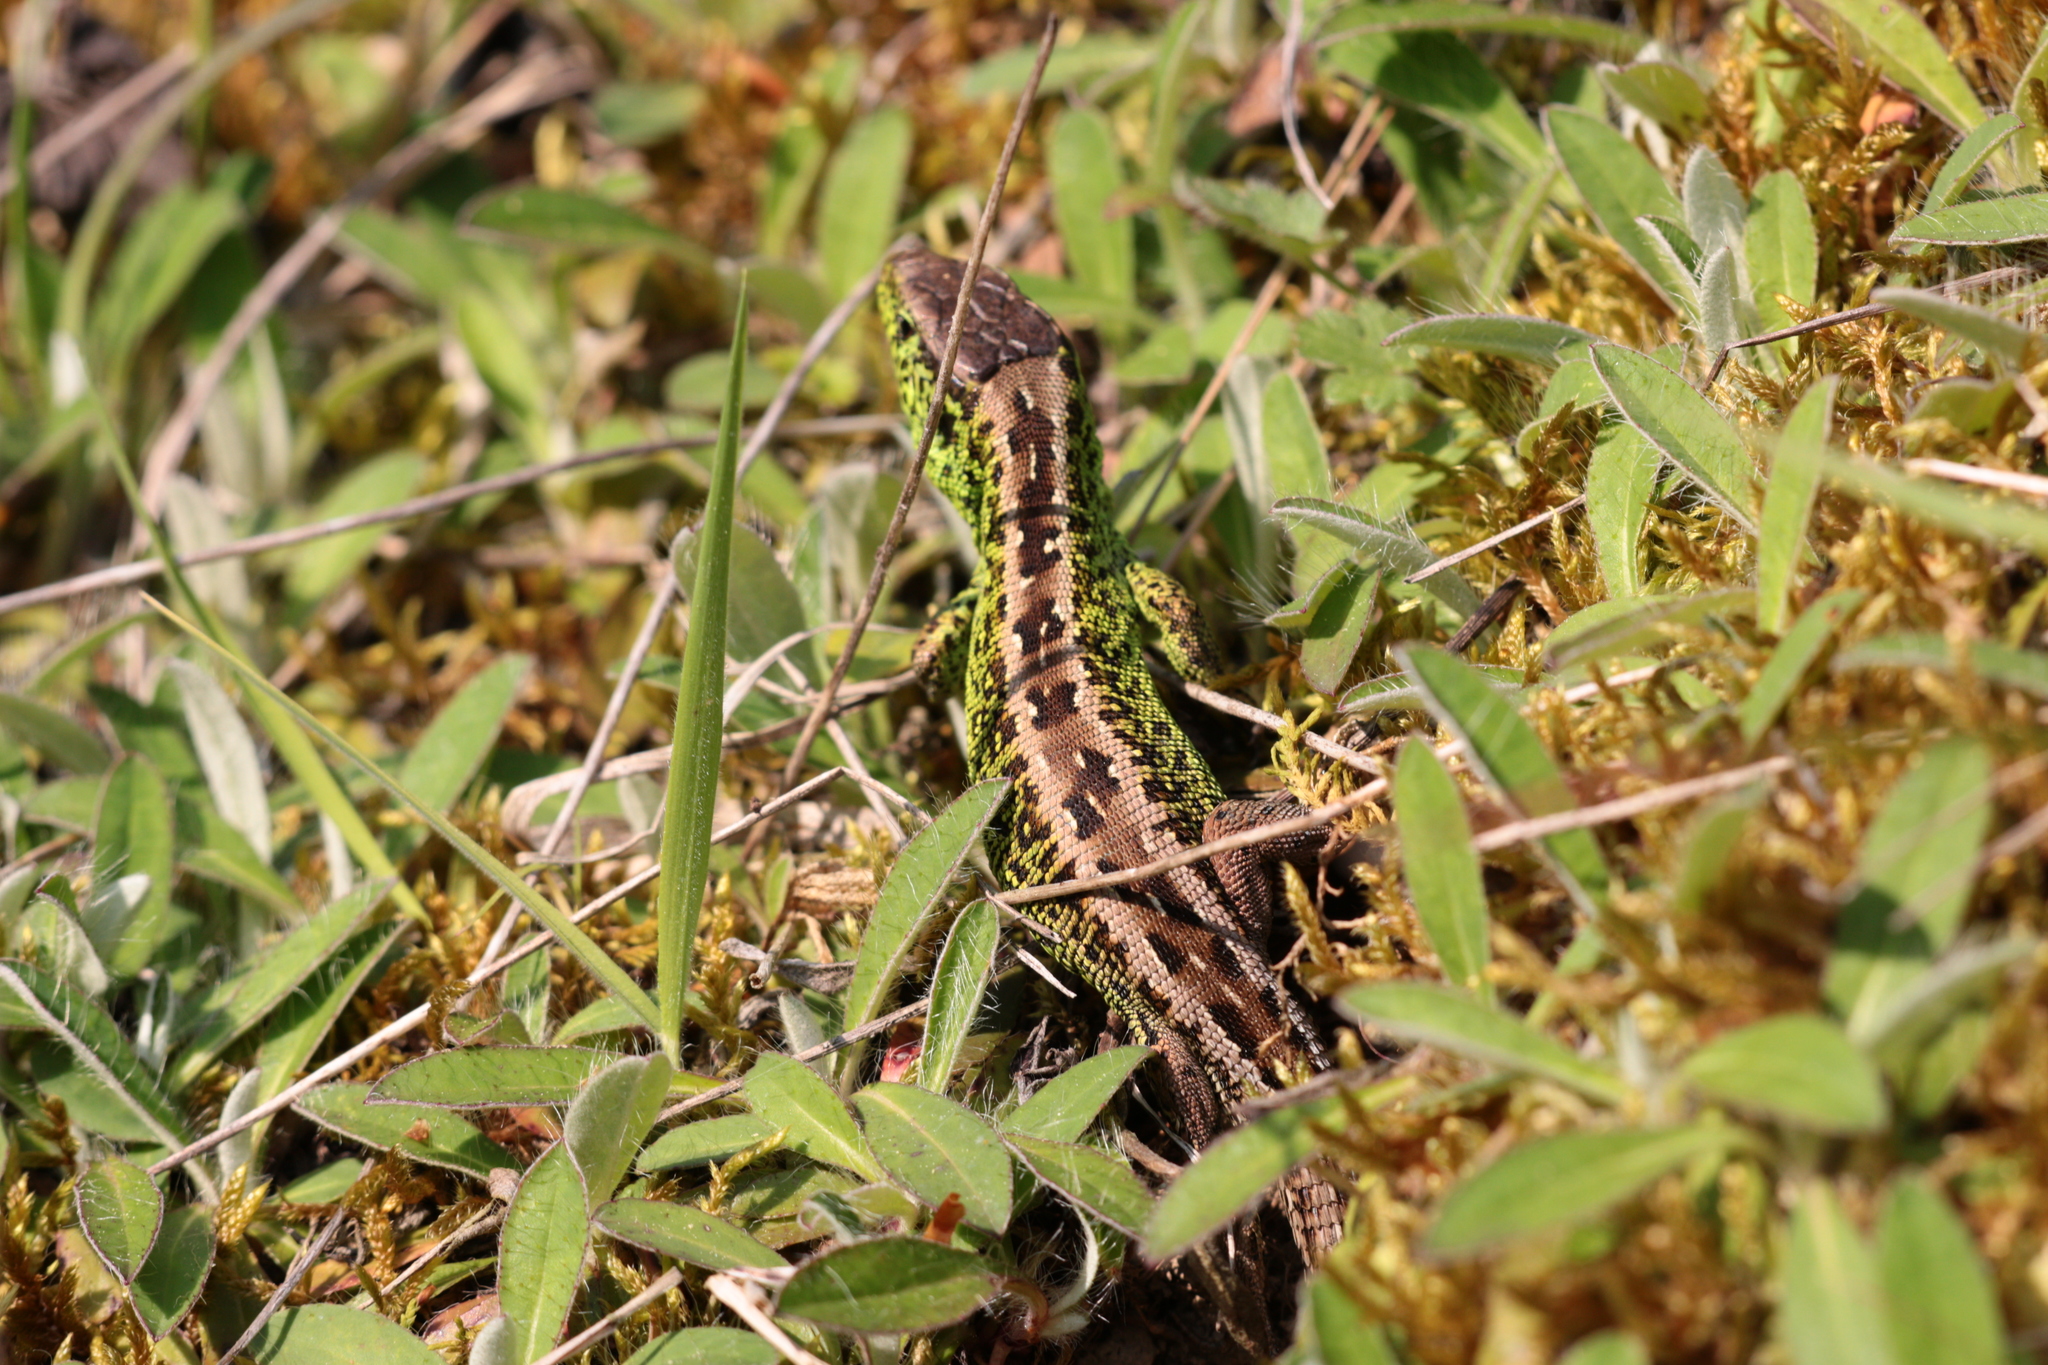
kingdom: Animalia
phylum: Chordata
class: Squamata
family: Lacertidae
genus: Lacerta
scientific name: Lacerta agilis
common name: Sand lizard
